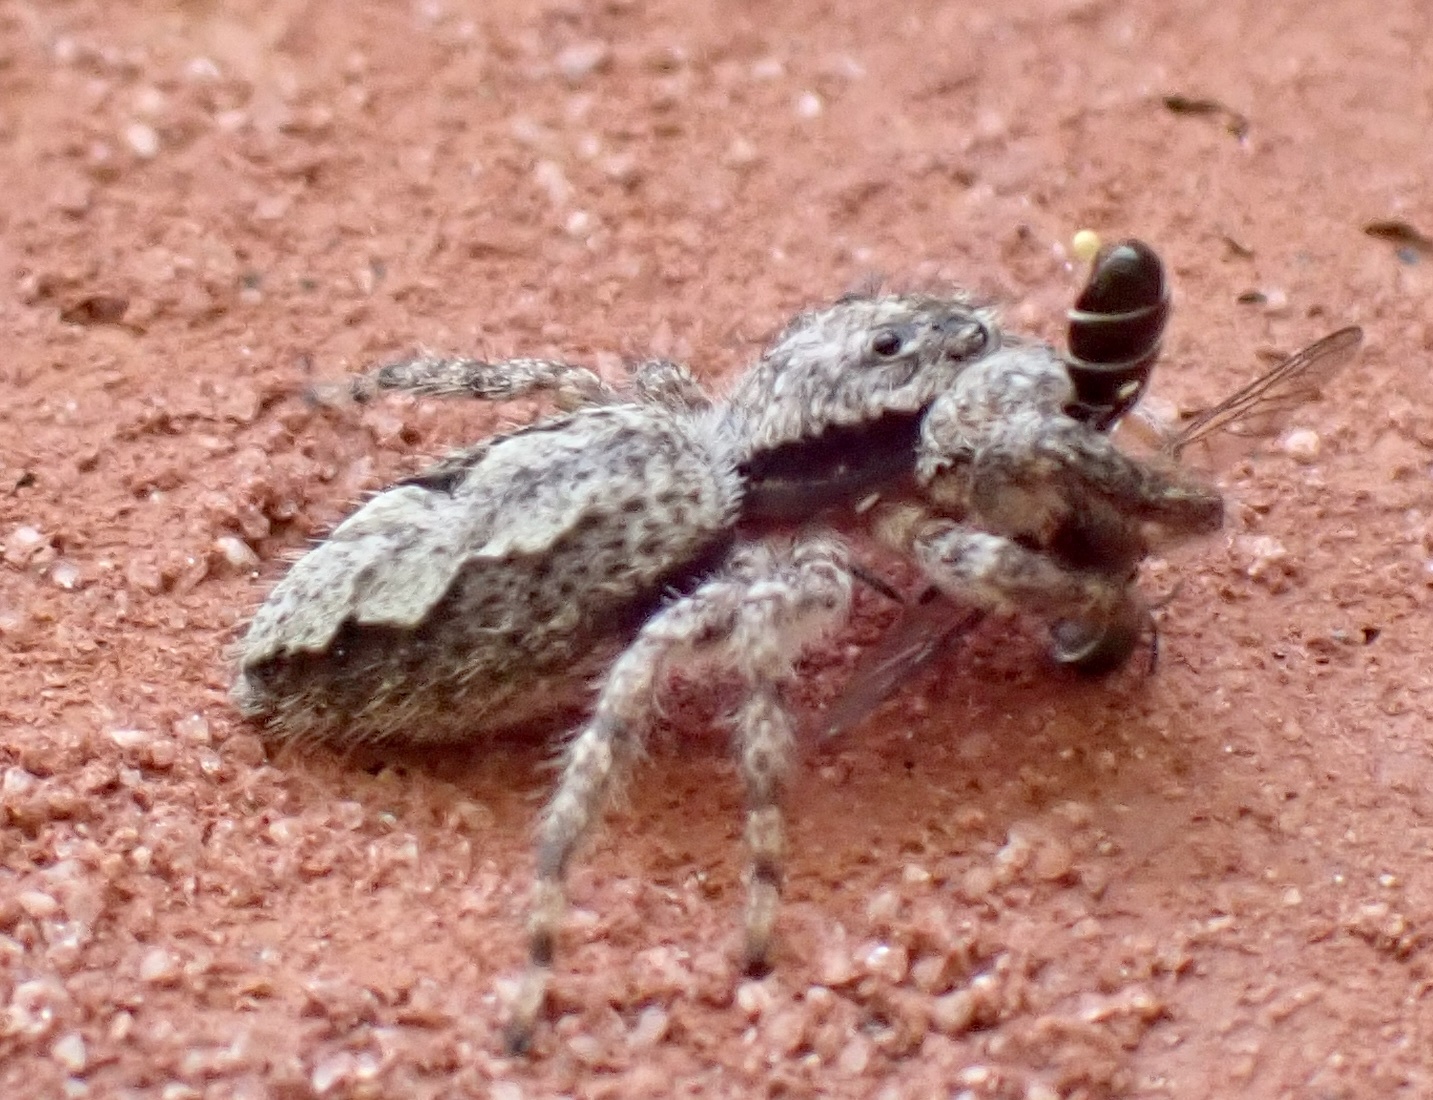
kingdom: Animalia
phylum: Arthropoda
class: Arachnida
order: Araneae
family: Salticidae
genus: Platycryptus
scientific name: Platycryptus undatus
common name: Tan jumping spider
